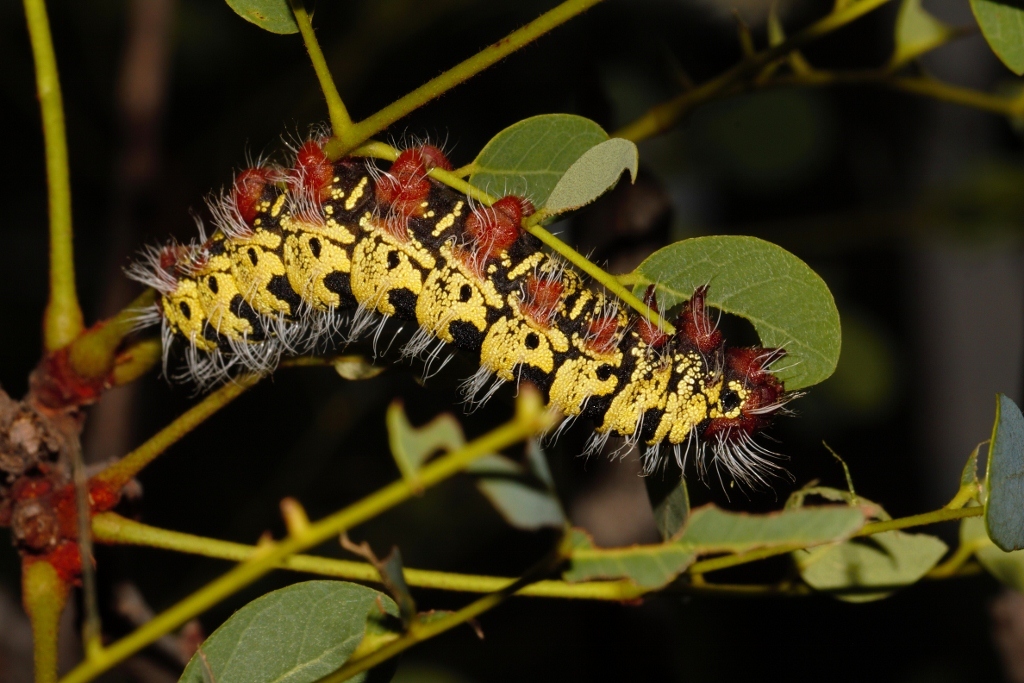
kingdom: Animalia
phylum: Arthropoda
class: Insecta
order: Lepidoptera
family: Saturniidae
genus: Cirina
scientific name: Cirina forda
